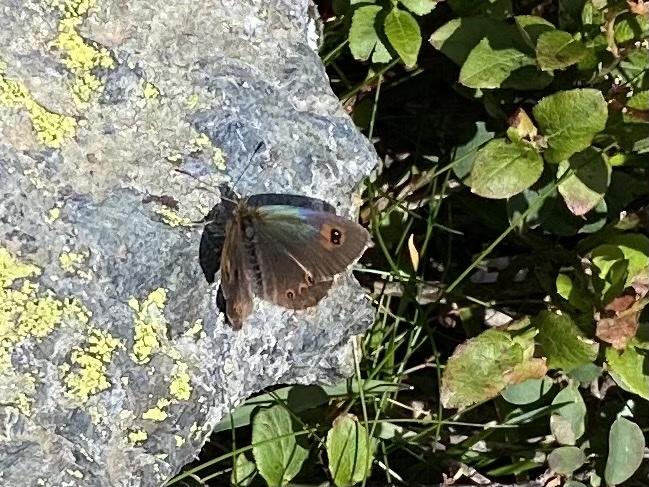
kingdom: Animalia
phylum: Arthropoda
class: Insecta
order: Lepidoptera
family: Nymphalidae
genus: Erebia
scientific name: Erebia cassioides
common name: Common brassy ringlet
